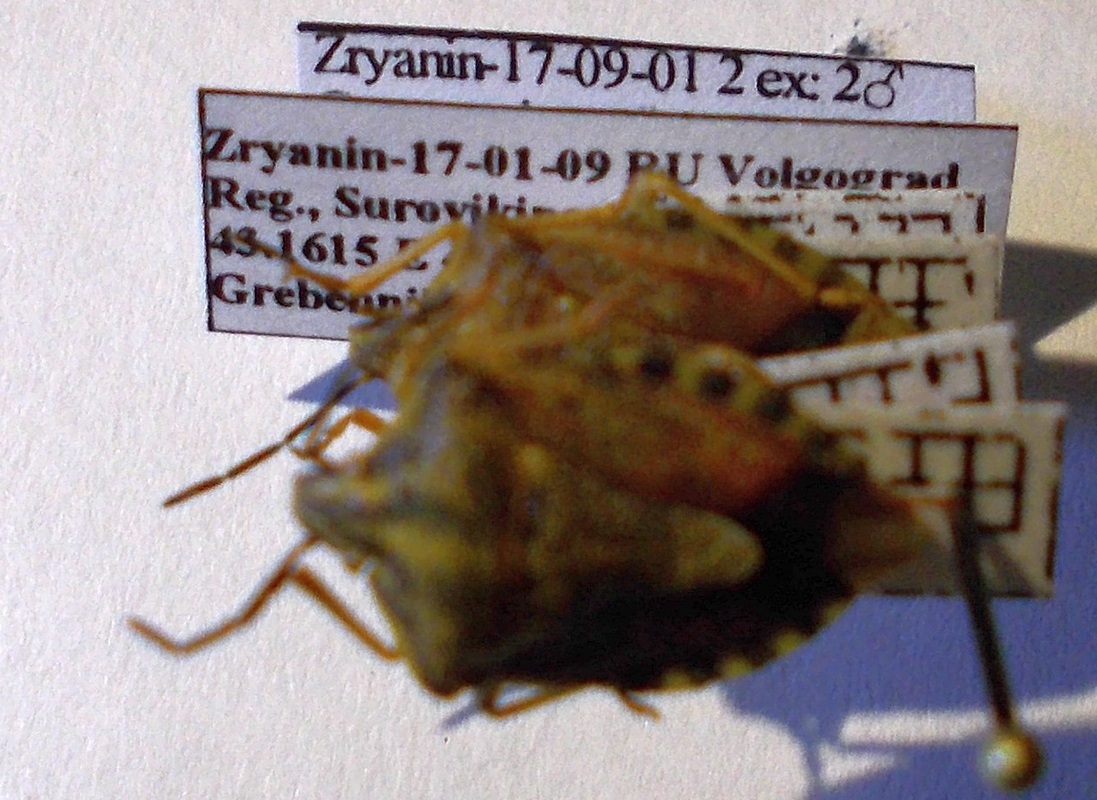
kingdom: Animalia
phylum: Arthropoda
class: Insecta
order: Hemiptera
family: Pentatomidae
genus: Carpocoris
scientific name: Carpocoris purpureipennis
